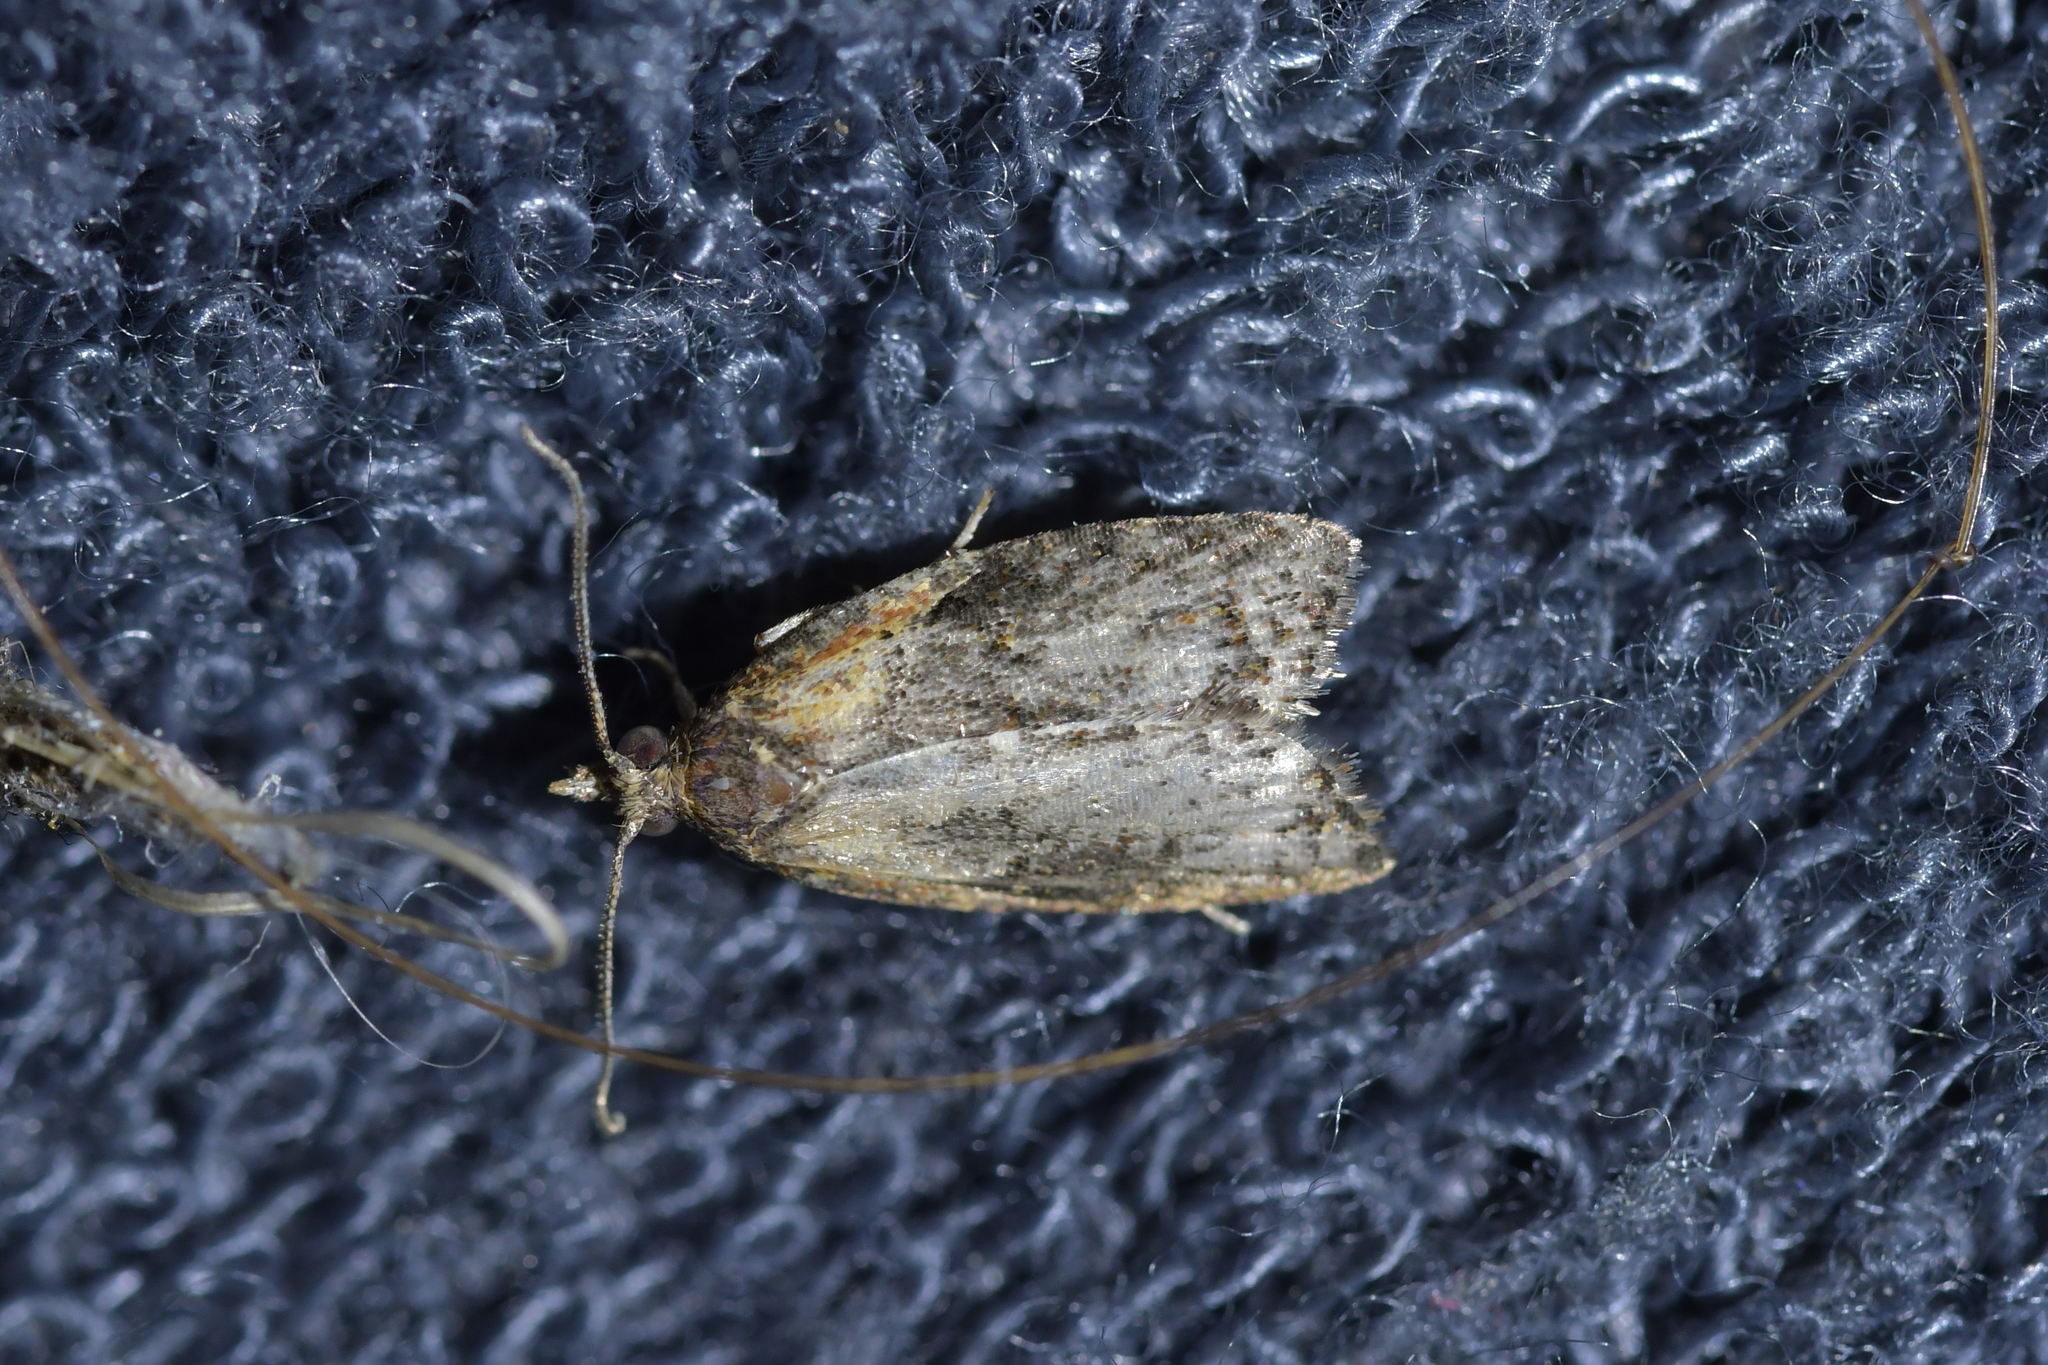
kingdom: Animalia
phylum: Arthropoda
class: Insecta
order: Lepidoptera
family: Tortricidae
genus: Capua
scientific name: Capua intractana
